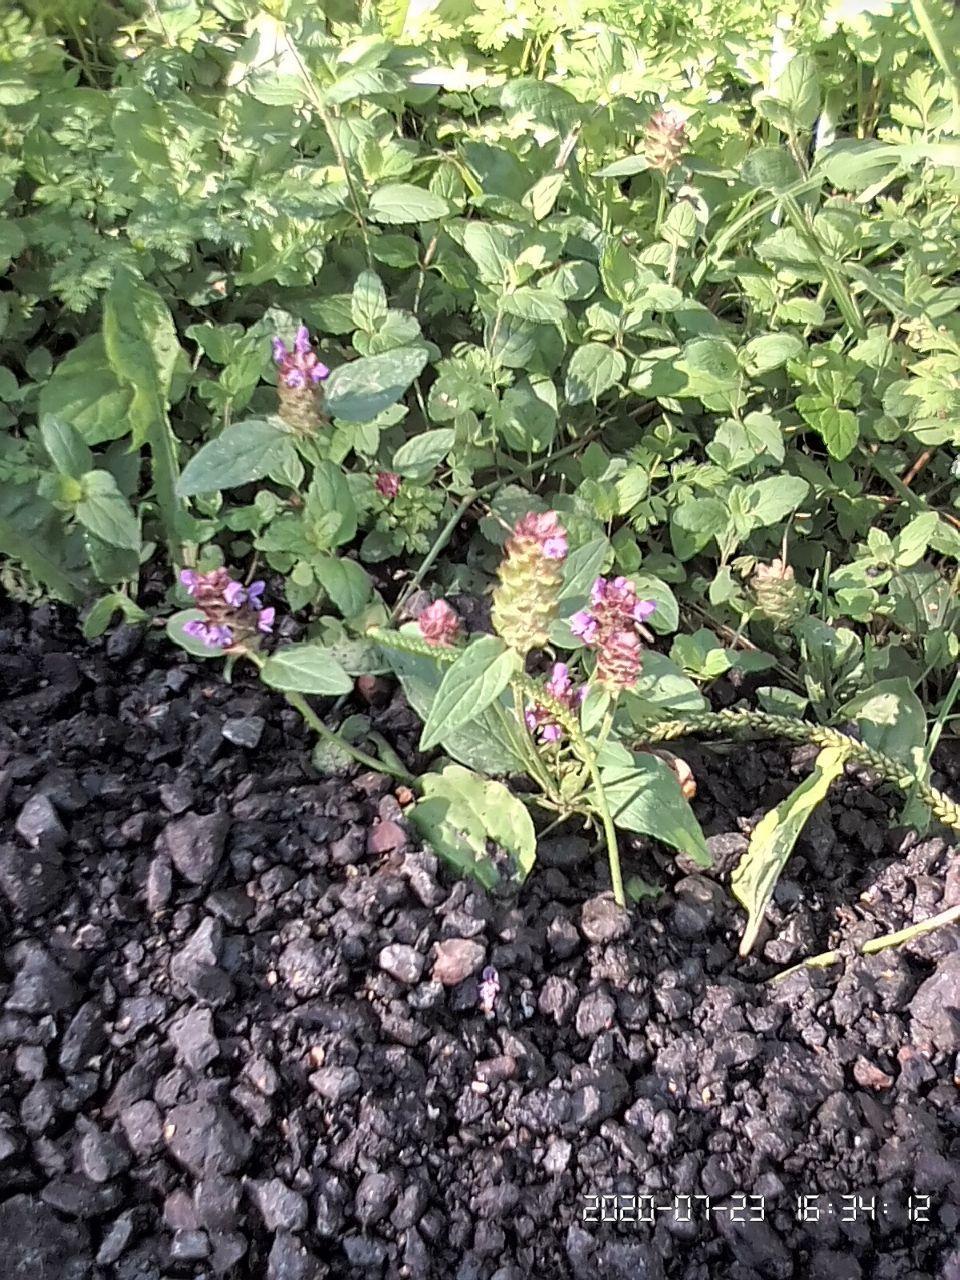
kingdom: Plantae
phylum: Tracheophyta
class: Magnoliopsida
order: Lamiales
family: Lamiaceae
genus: Prunella
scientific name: Prunella vulgaris
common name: Heal-all
